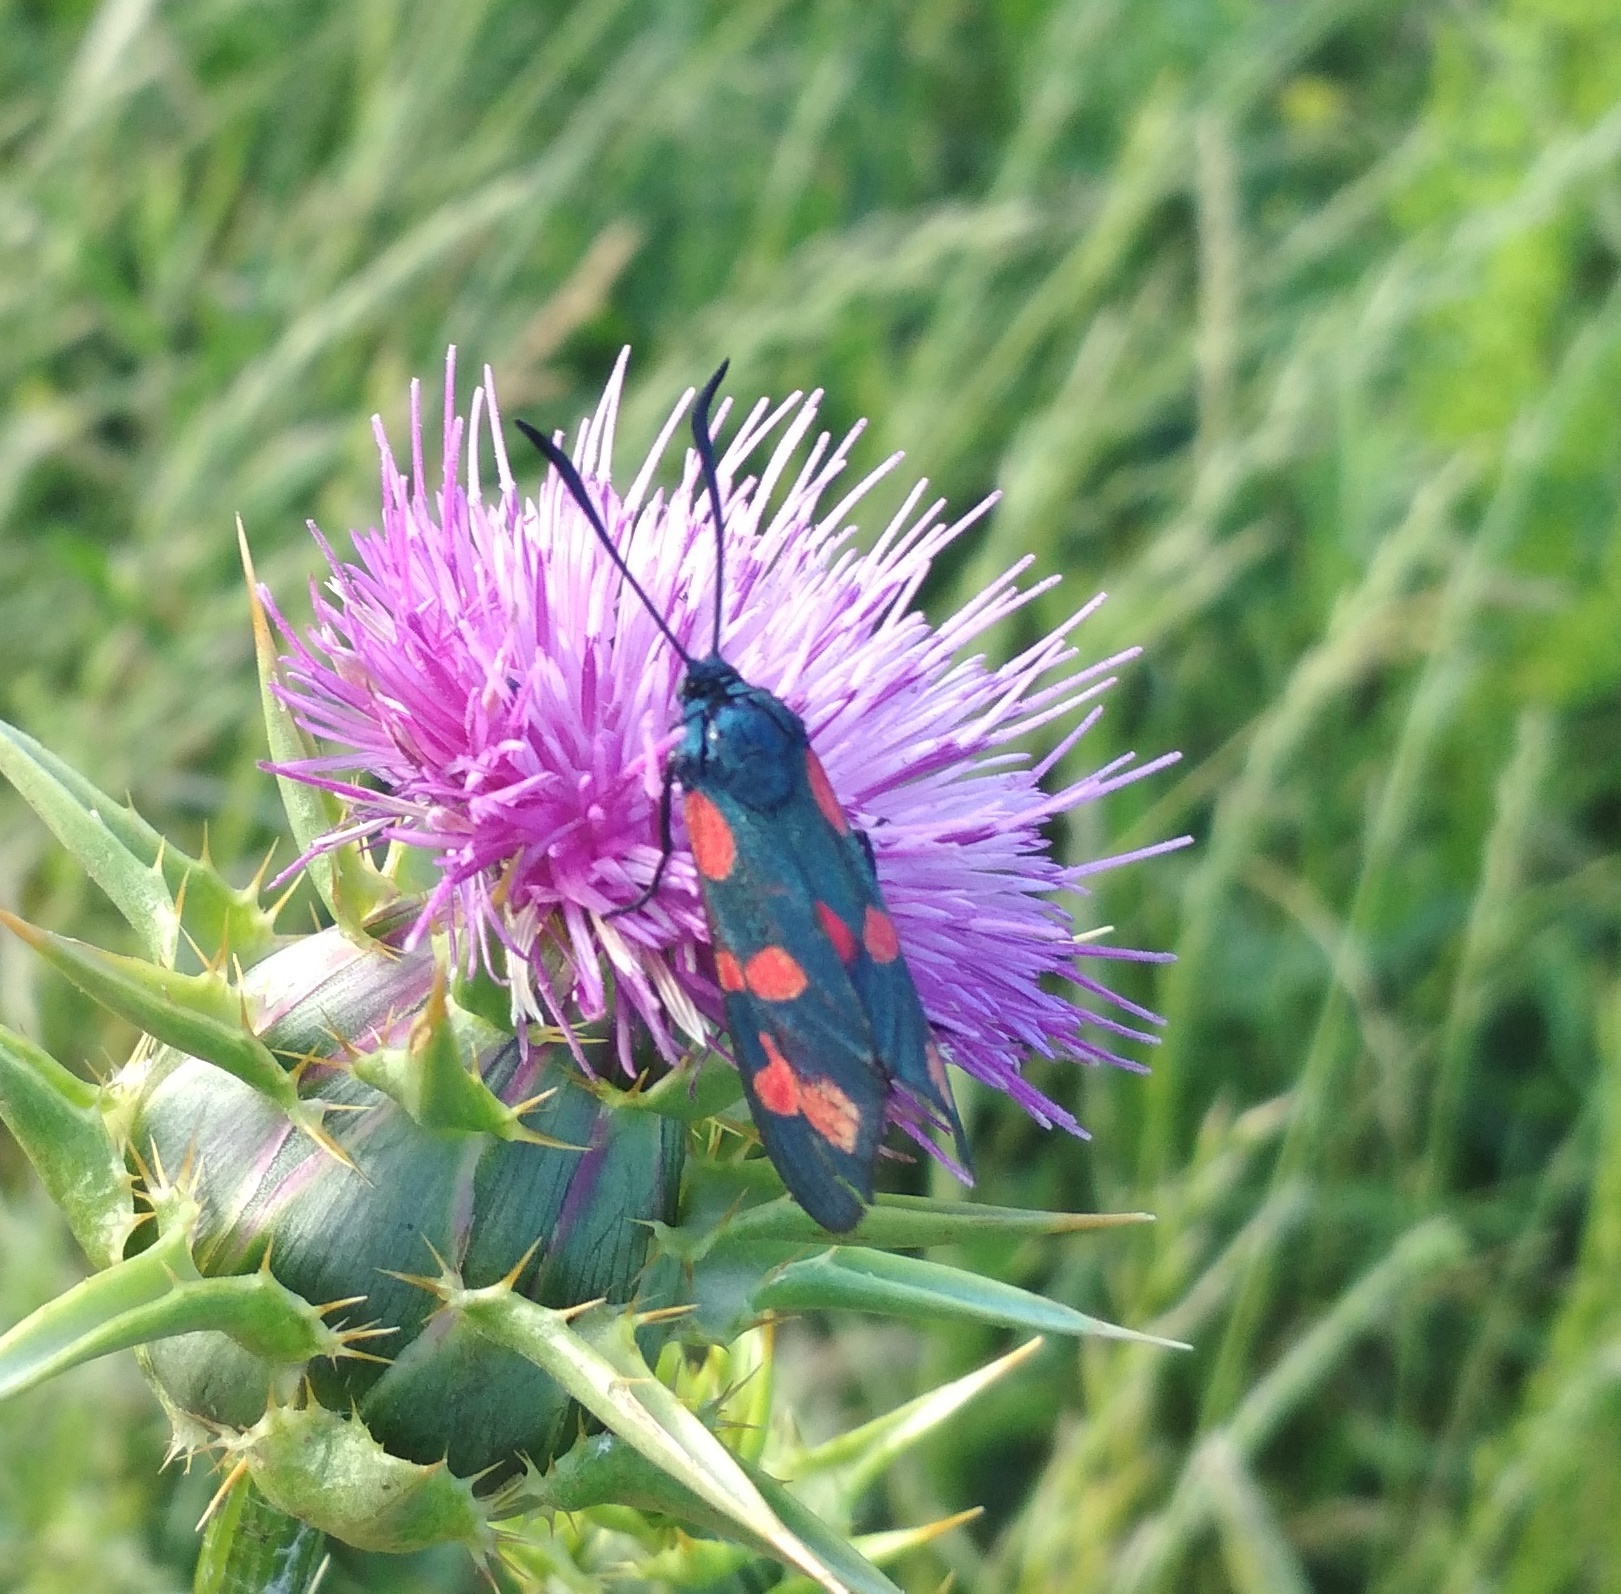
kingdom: Animalia
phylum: Arthropoda
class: Insecta
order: Lepidoptera
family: Zygaenidae
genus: Zygaena
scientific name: Zygaena filipendulae
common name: Six-spot burnet
